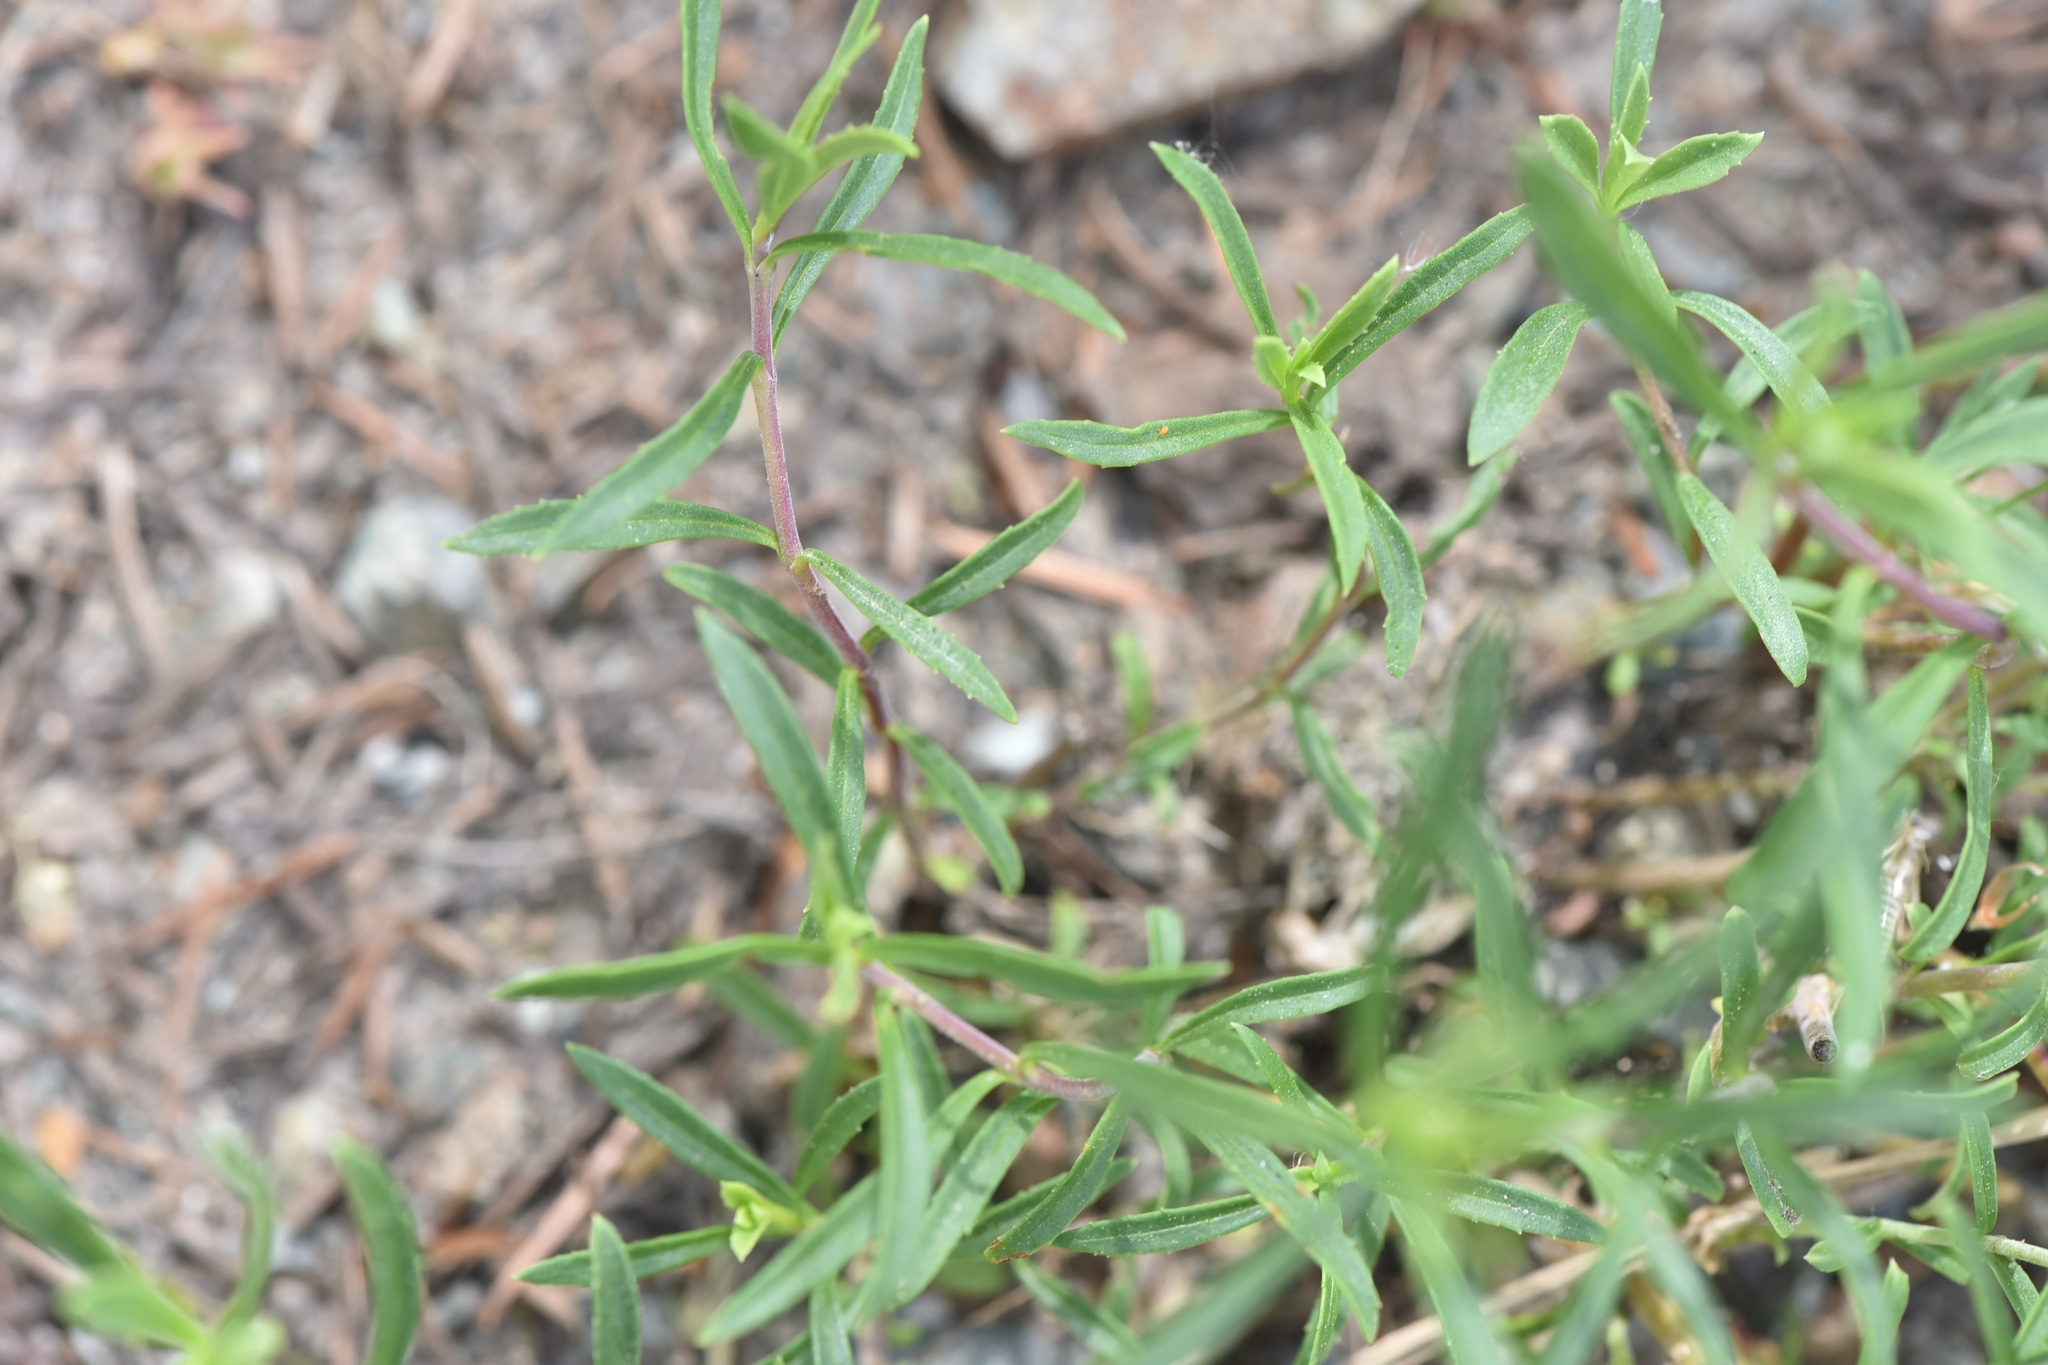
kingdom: Plantae
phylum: Tracheophyta
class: Magnoliopsida
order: Lamiales
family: Plantaginaceae
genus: Penstemon
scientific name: Penstemon fruticosus
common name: Bush penstemon
